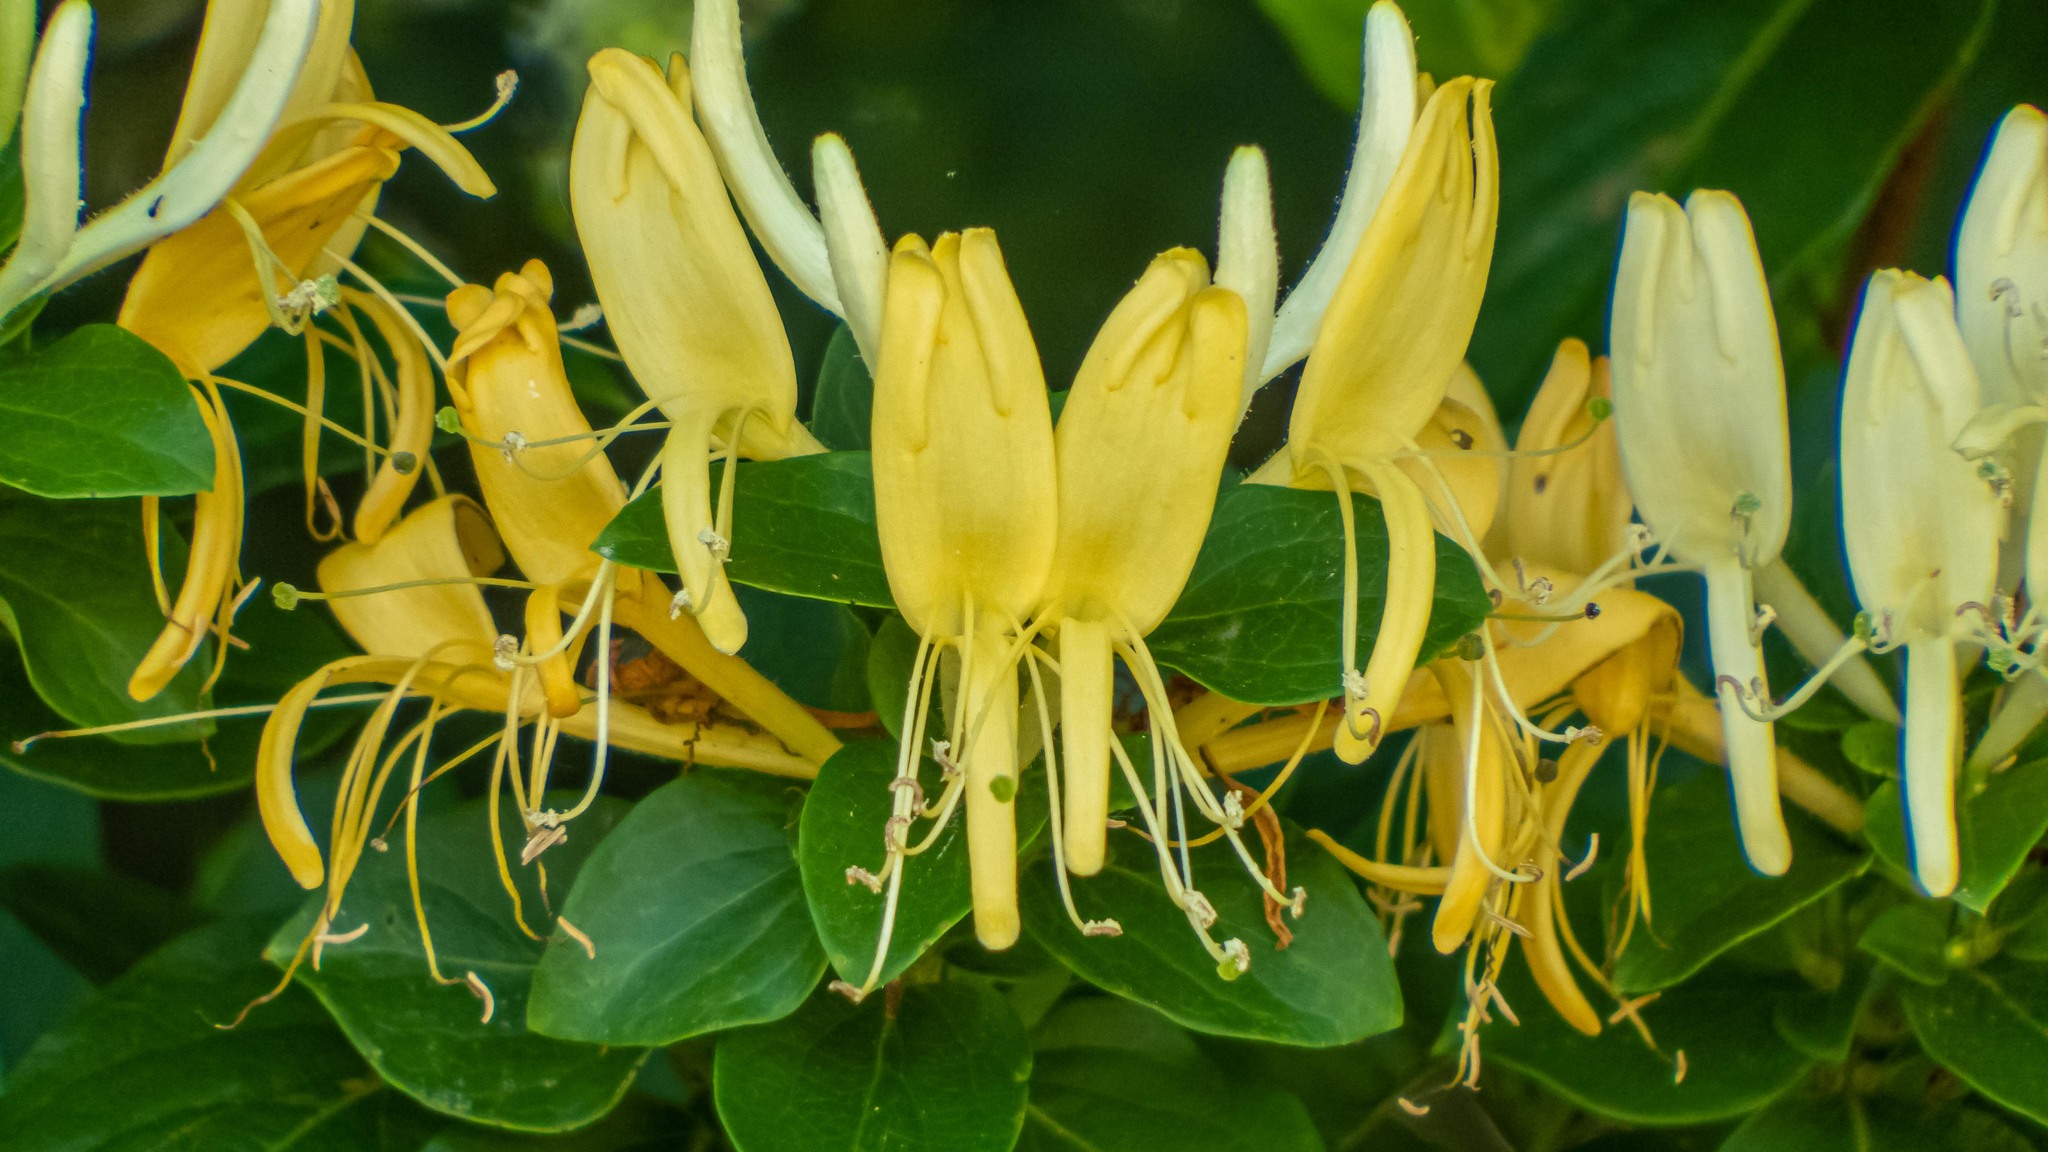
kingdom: Plantae
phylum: Tracheophyta
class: Magnoliopsida
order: Dipsacales
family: Caprifoliaceae
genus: Lonicera
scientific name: Lonicera japonica
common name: Japanese honeysuckle
